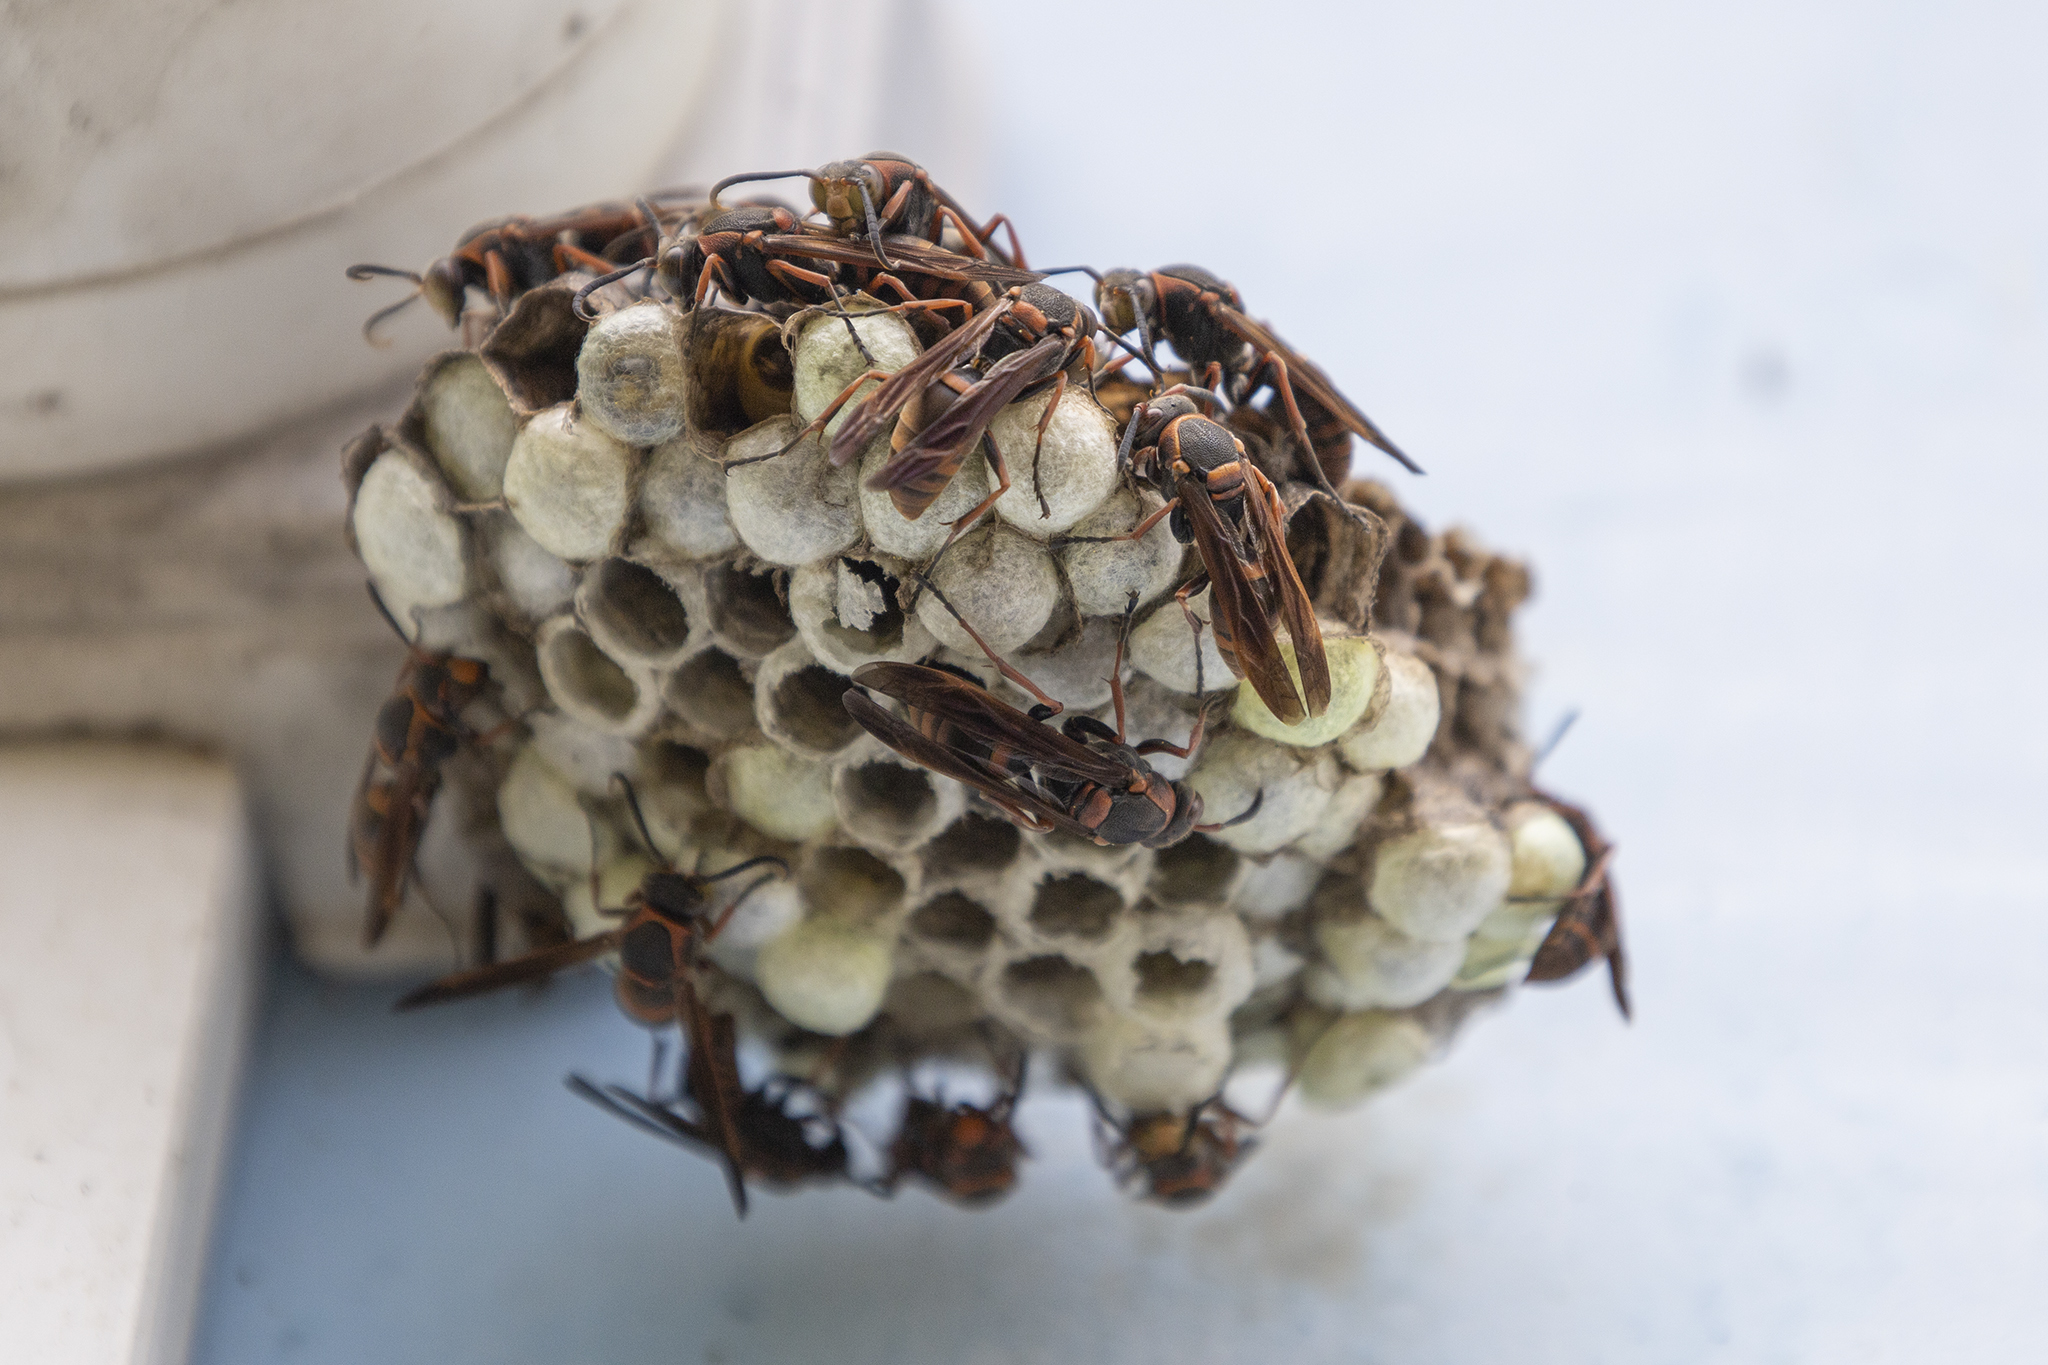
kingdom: Animalia
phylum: Arthropoda
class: Insecta
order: Hymenoptera
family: Eumenidae
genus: Polistes
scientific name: Polistes adustus
